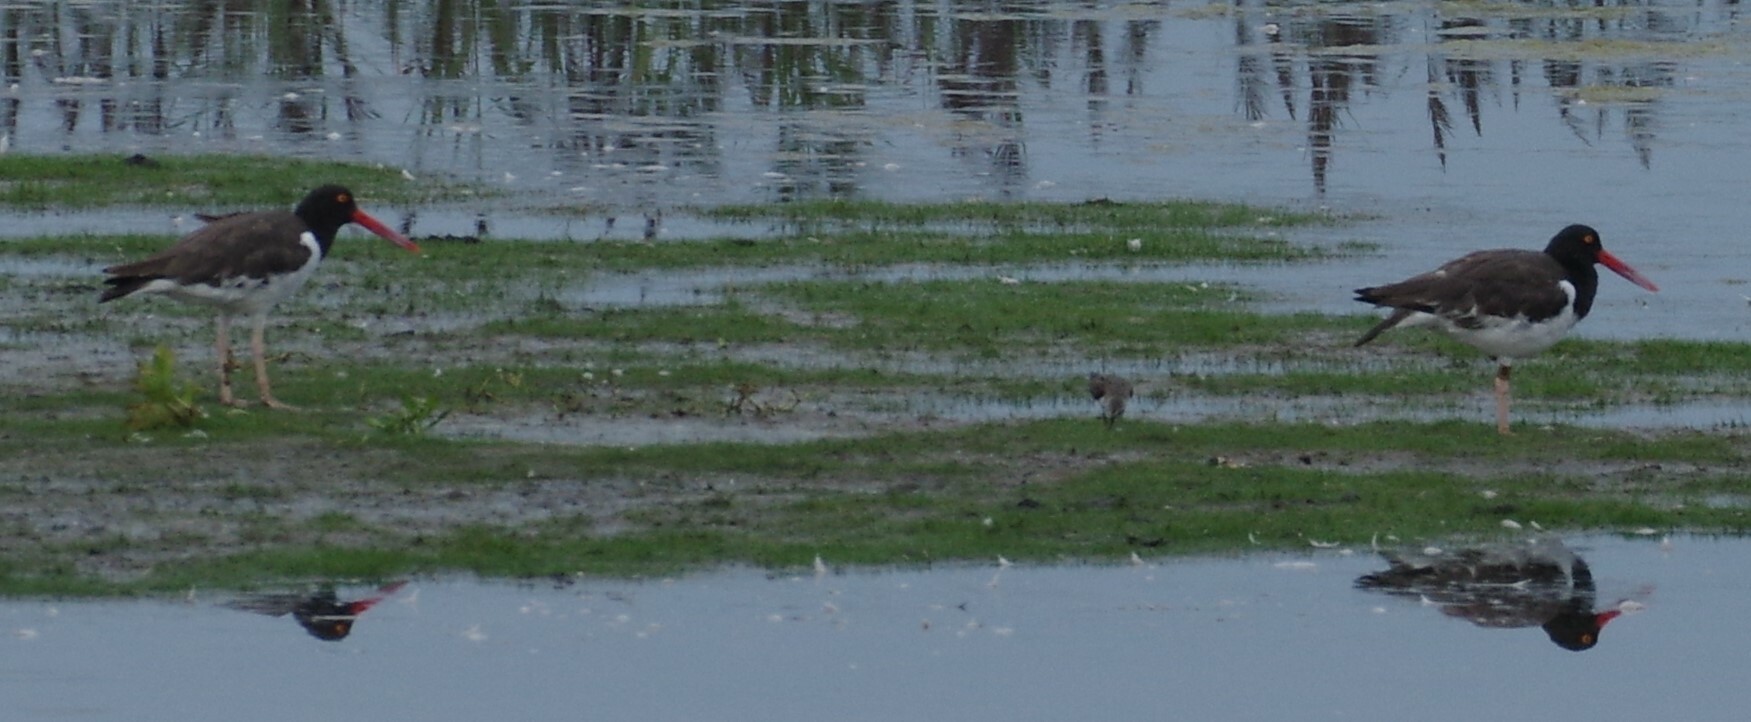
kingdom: Animalia
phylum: Chordata
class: Aves
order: Charadriiformes
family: Haematopodidae
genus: Haematopus
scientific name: Haematopus palliatus
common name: American oystercatcher
